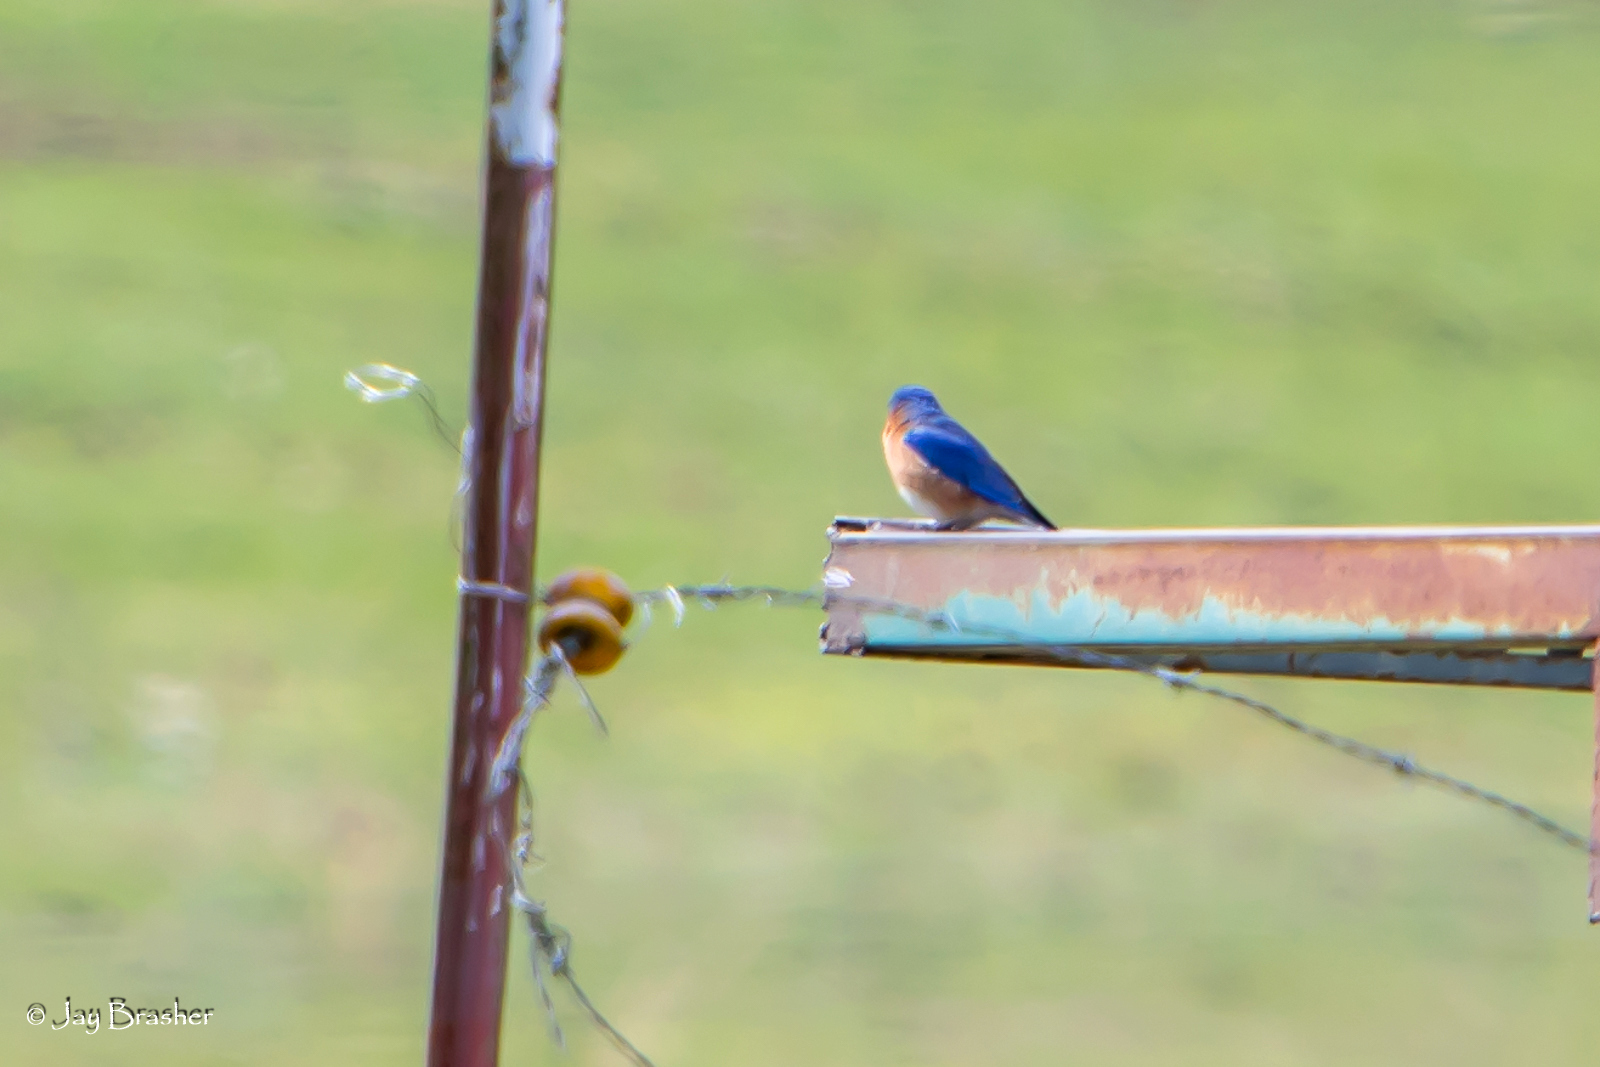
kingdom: Animalia
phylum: Chordata
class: Aves
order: Passeriformes
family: Turdidae
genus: Sialia
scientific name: Sialia sialis
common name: Eastern bluebird
